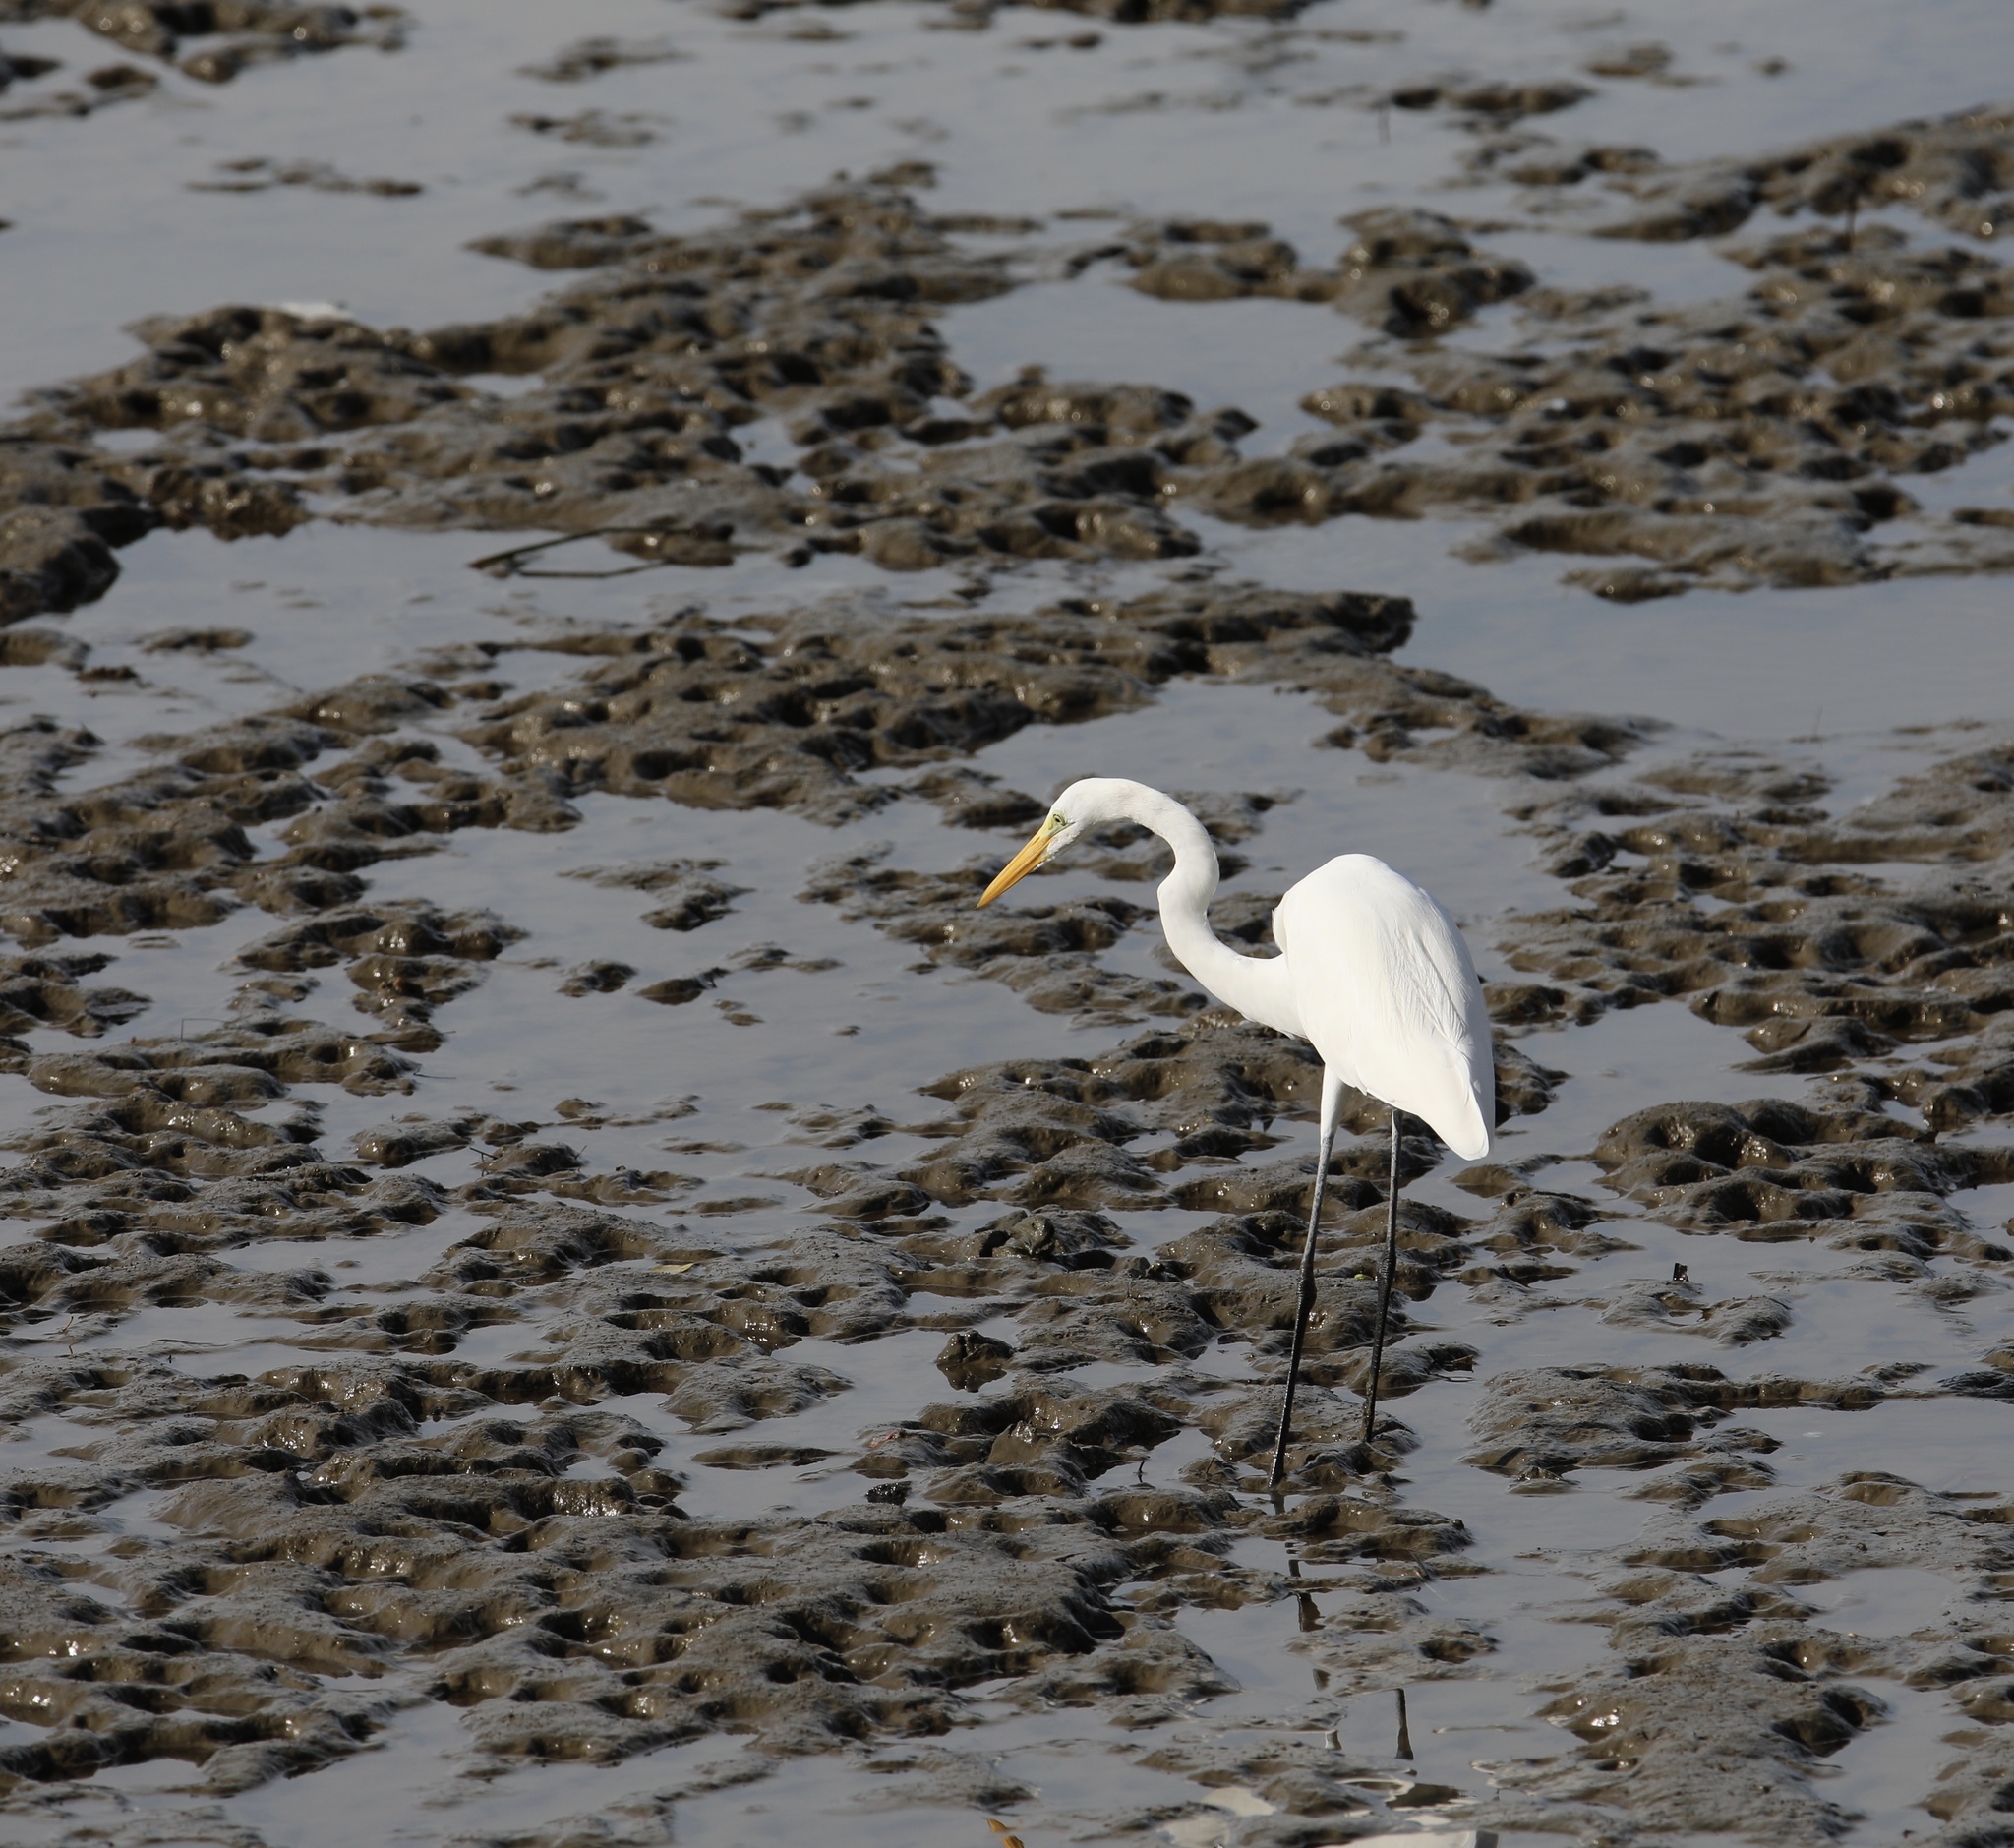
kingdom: Animalia
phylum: Chordata
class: Aves
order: Pelecaniformes
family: Ardeidae
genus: Ardea
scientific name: Ardea alba
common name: Great egret
